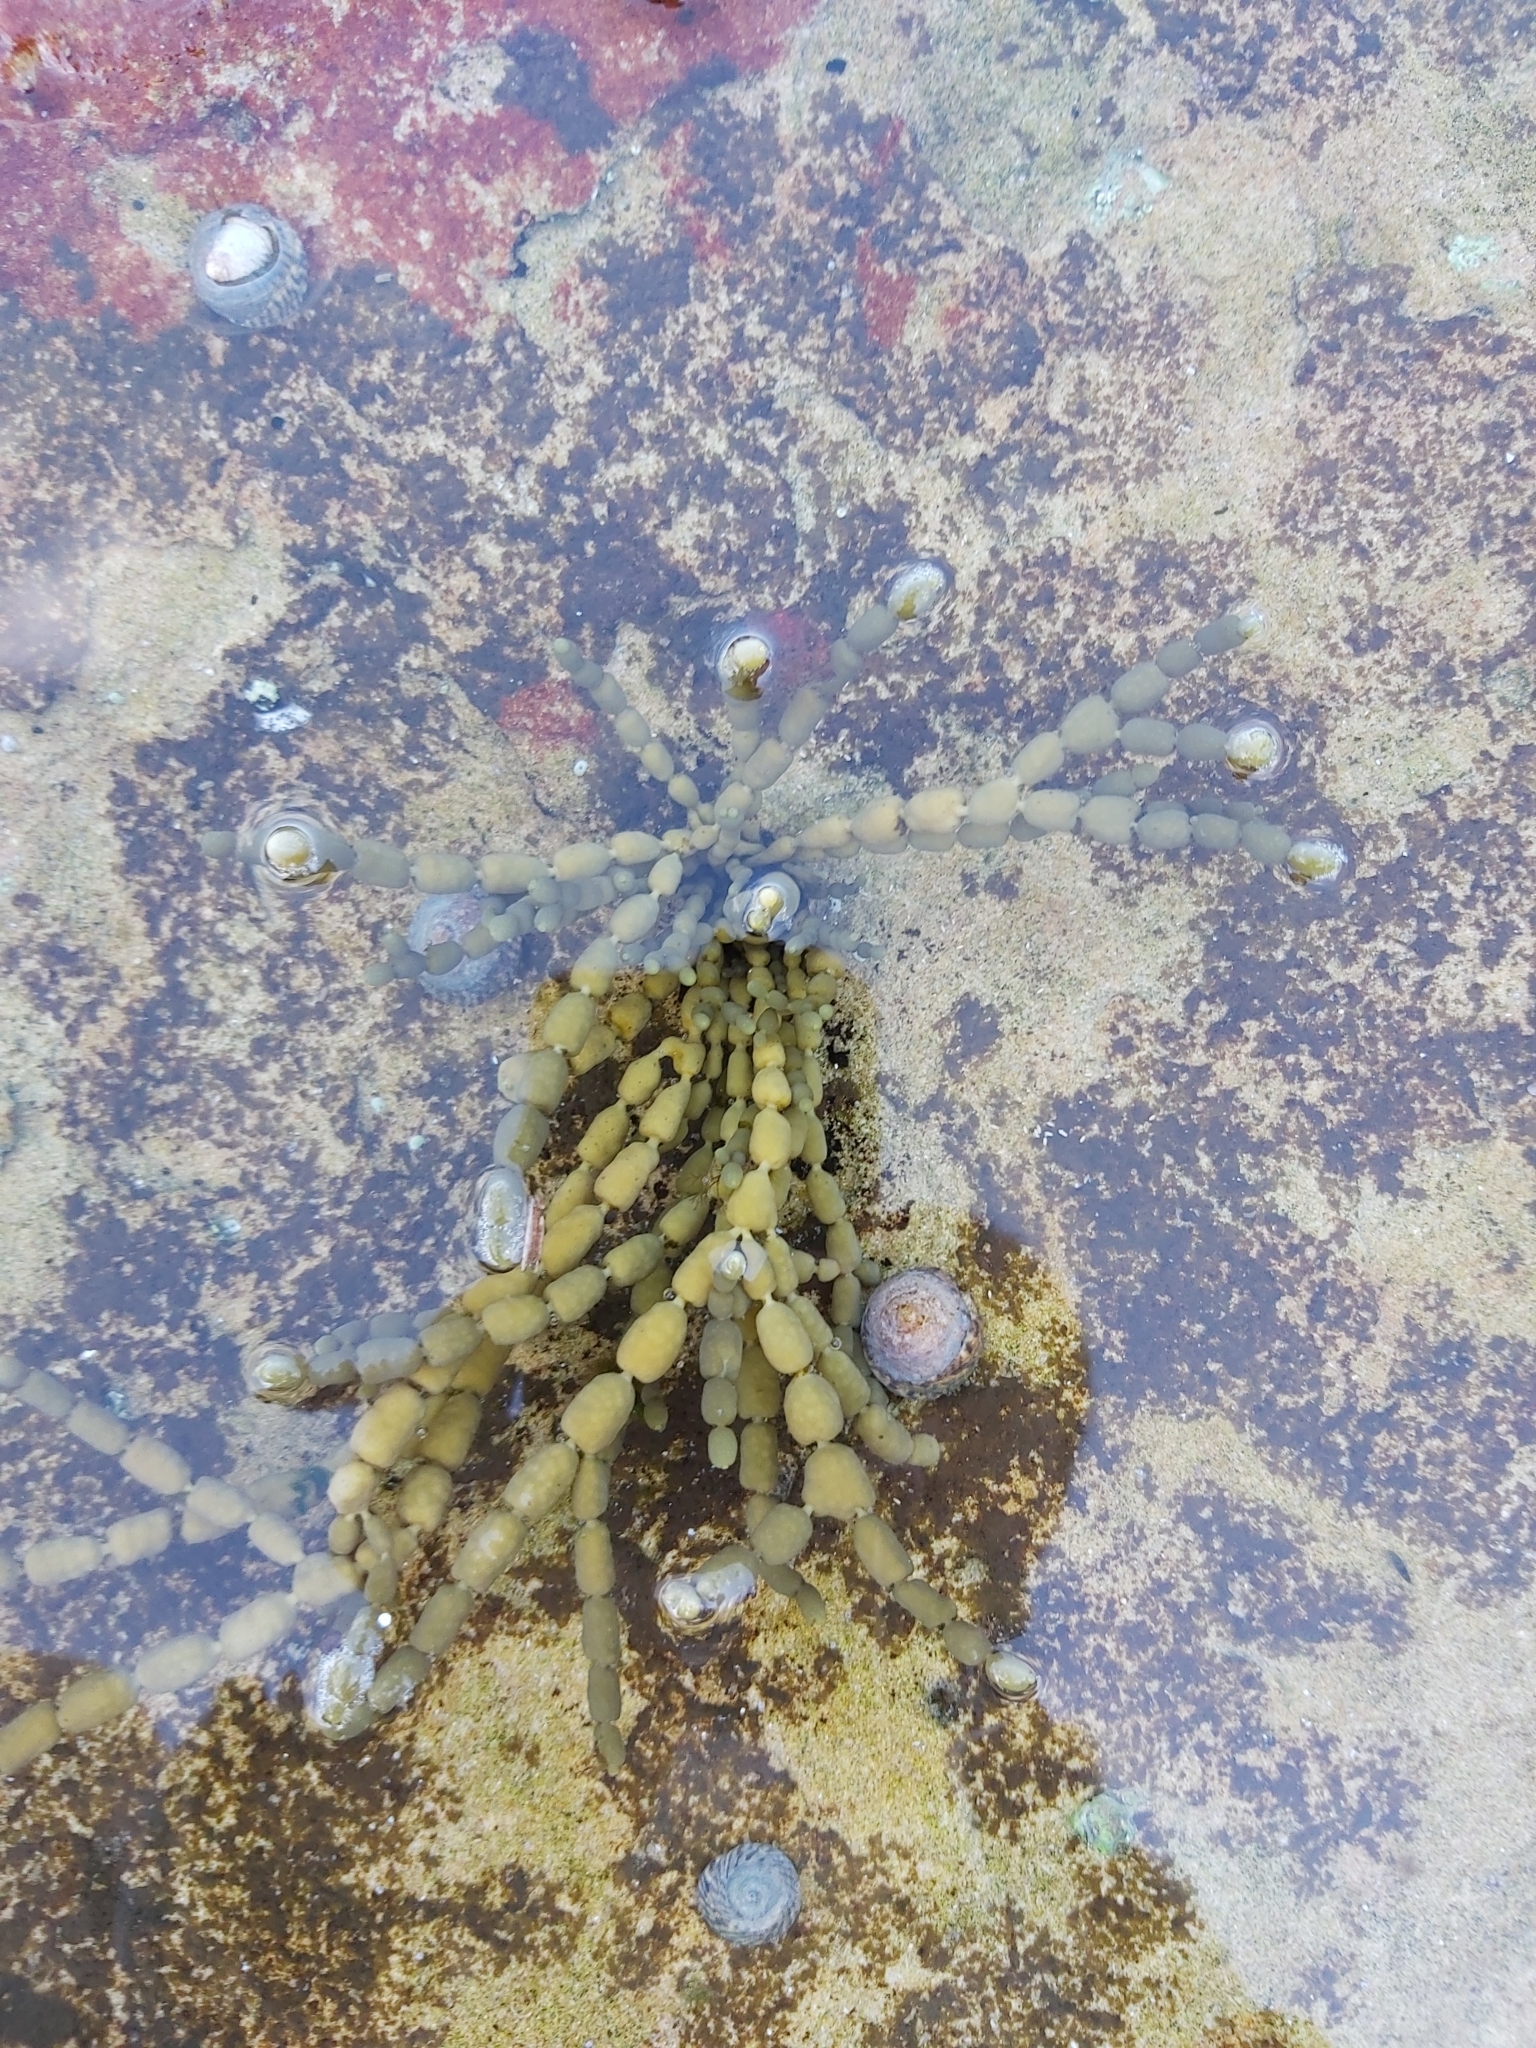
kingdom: Chromista
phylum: Ochrophyta
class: Phaeophyceae
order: Fucales
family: Hormosiraceae
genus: Hormosira
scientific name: Hormosira banksii
